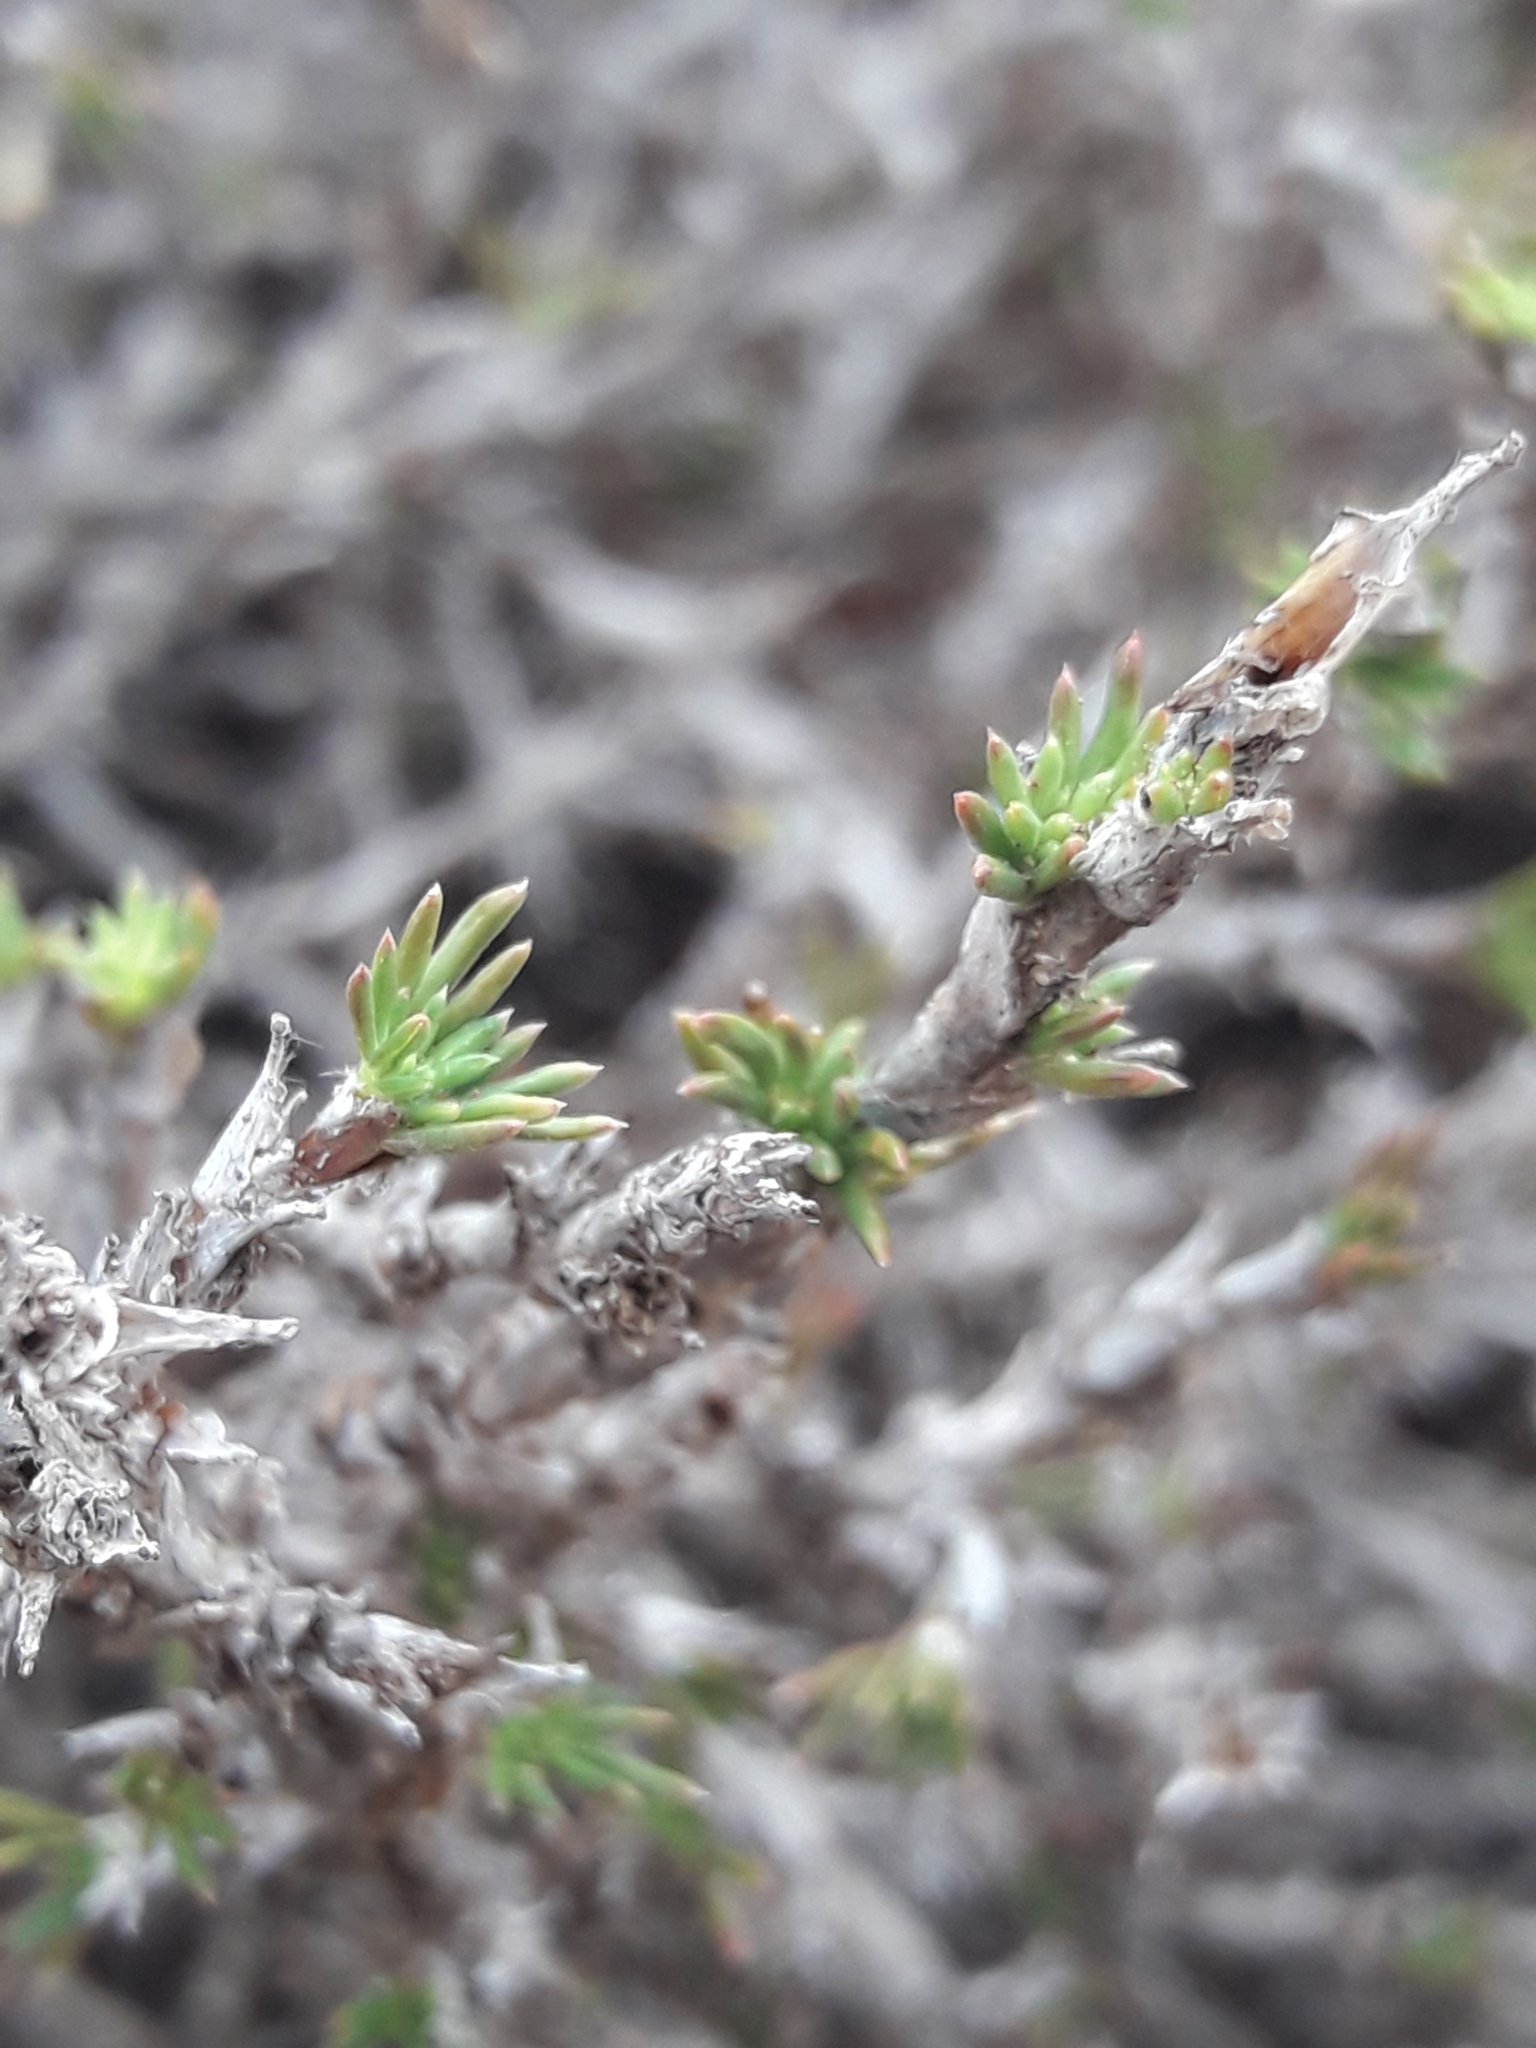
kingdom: Plantae
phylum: Tracheophyta
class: Magnoliopsida
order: Rosales
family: Rosaceae
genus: Margyricarpus
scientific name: Margyricarpus pinnatus
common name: Pearlfruit
